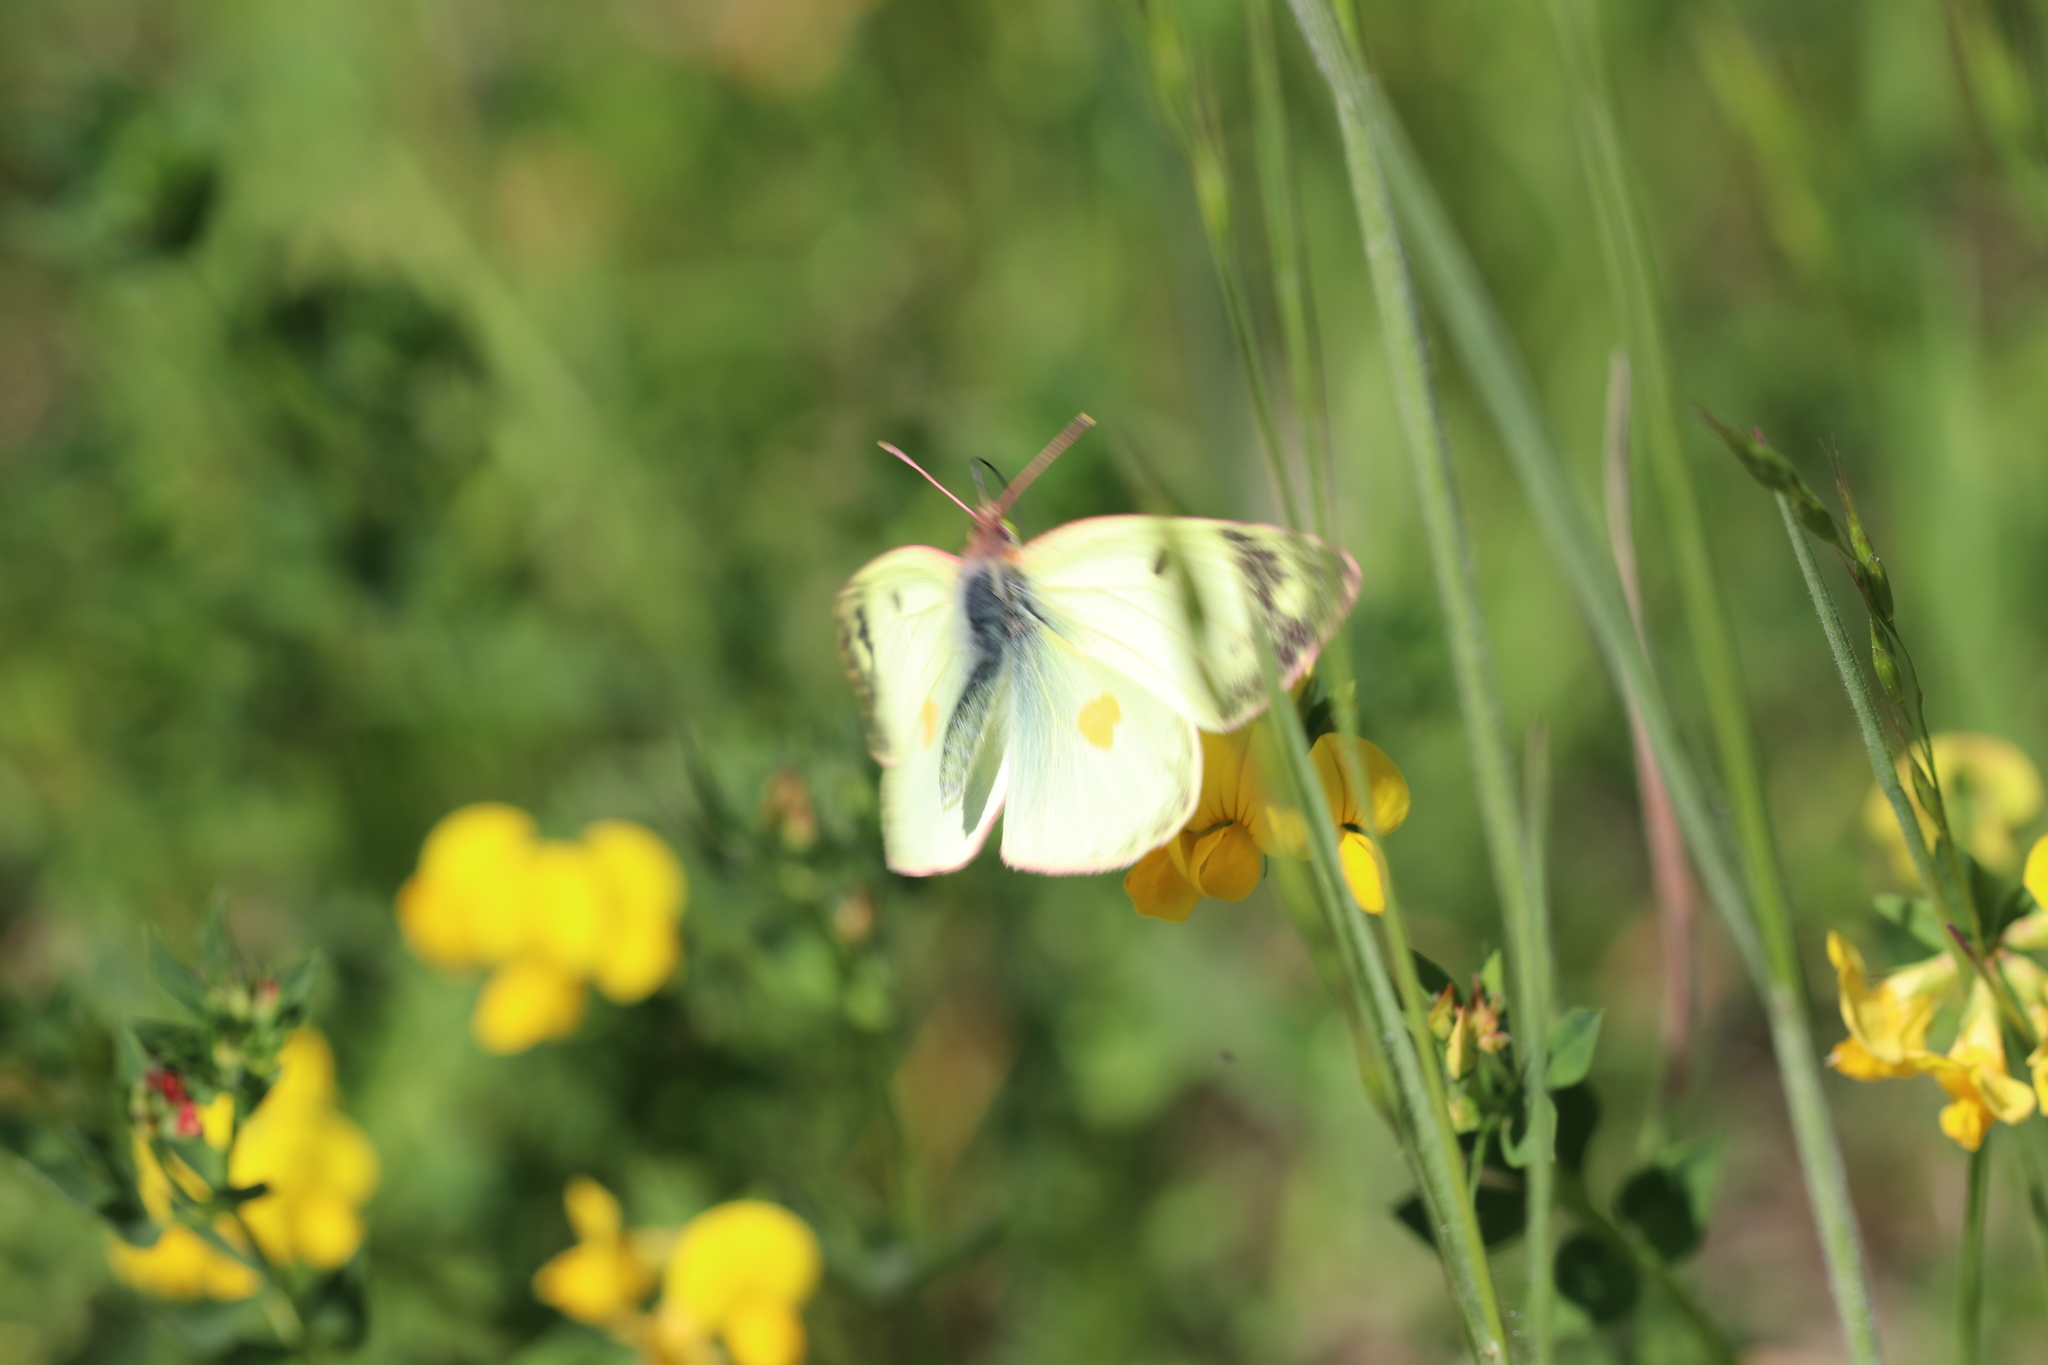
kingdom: Animalia
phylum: Arthropoda
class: Insecta
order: Lepidoptera
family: Pieridae
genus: Colias
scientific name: Colias croceus
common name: Clouded yellow
